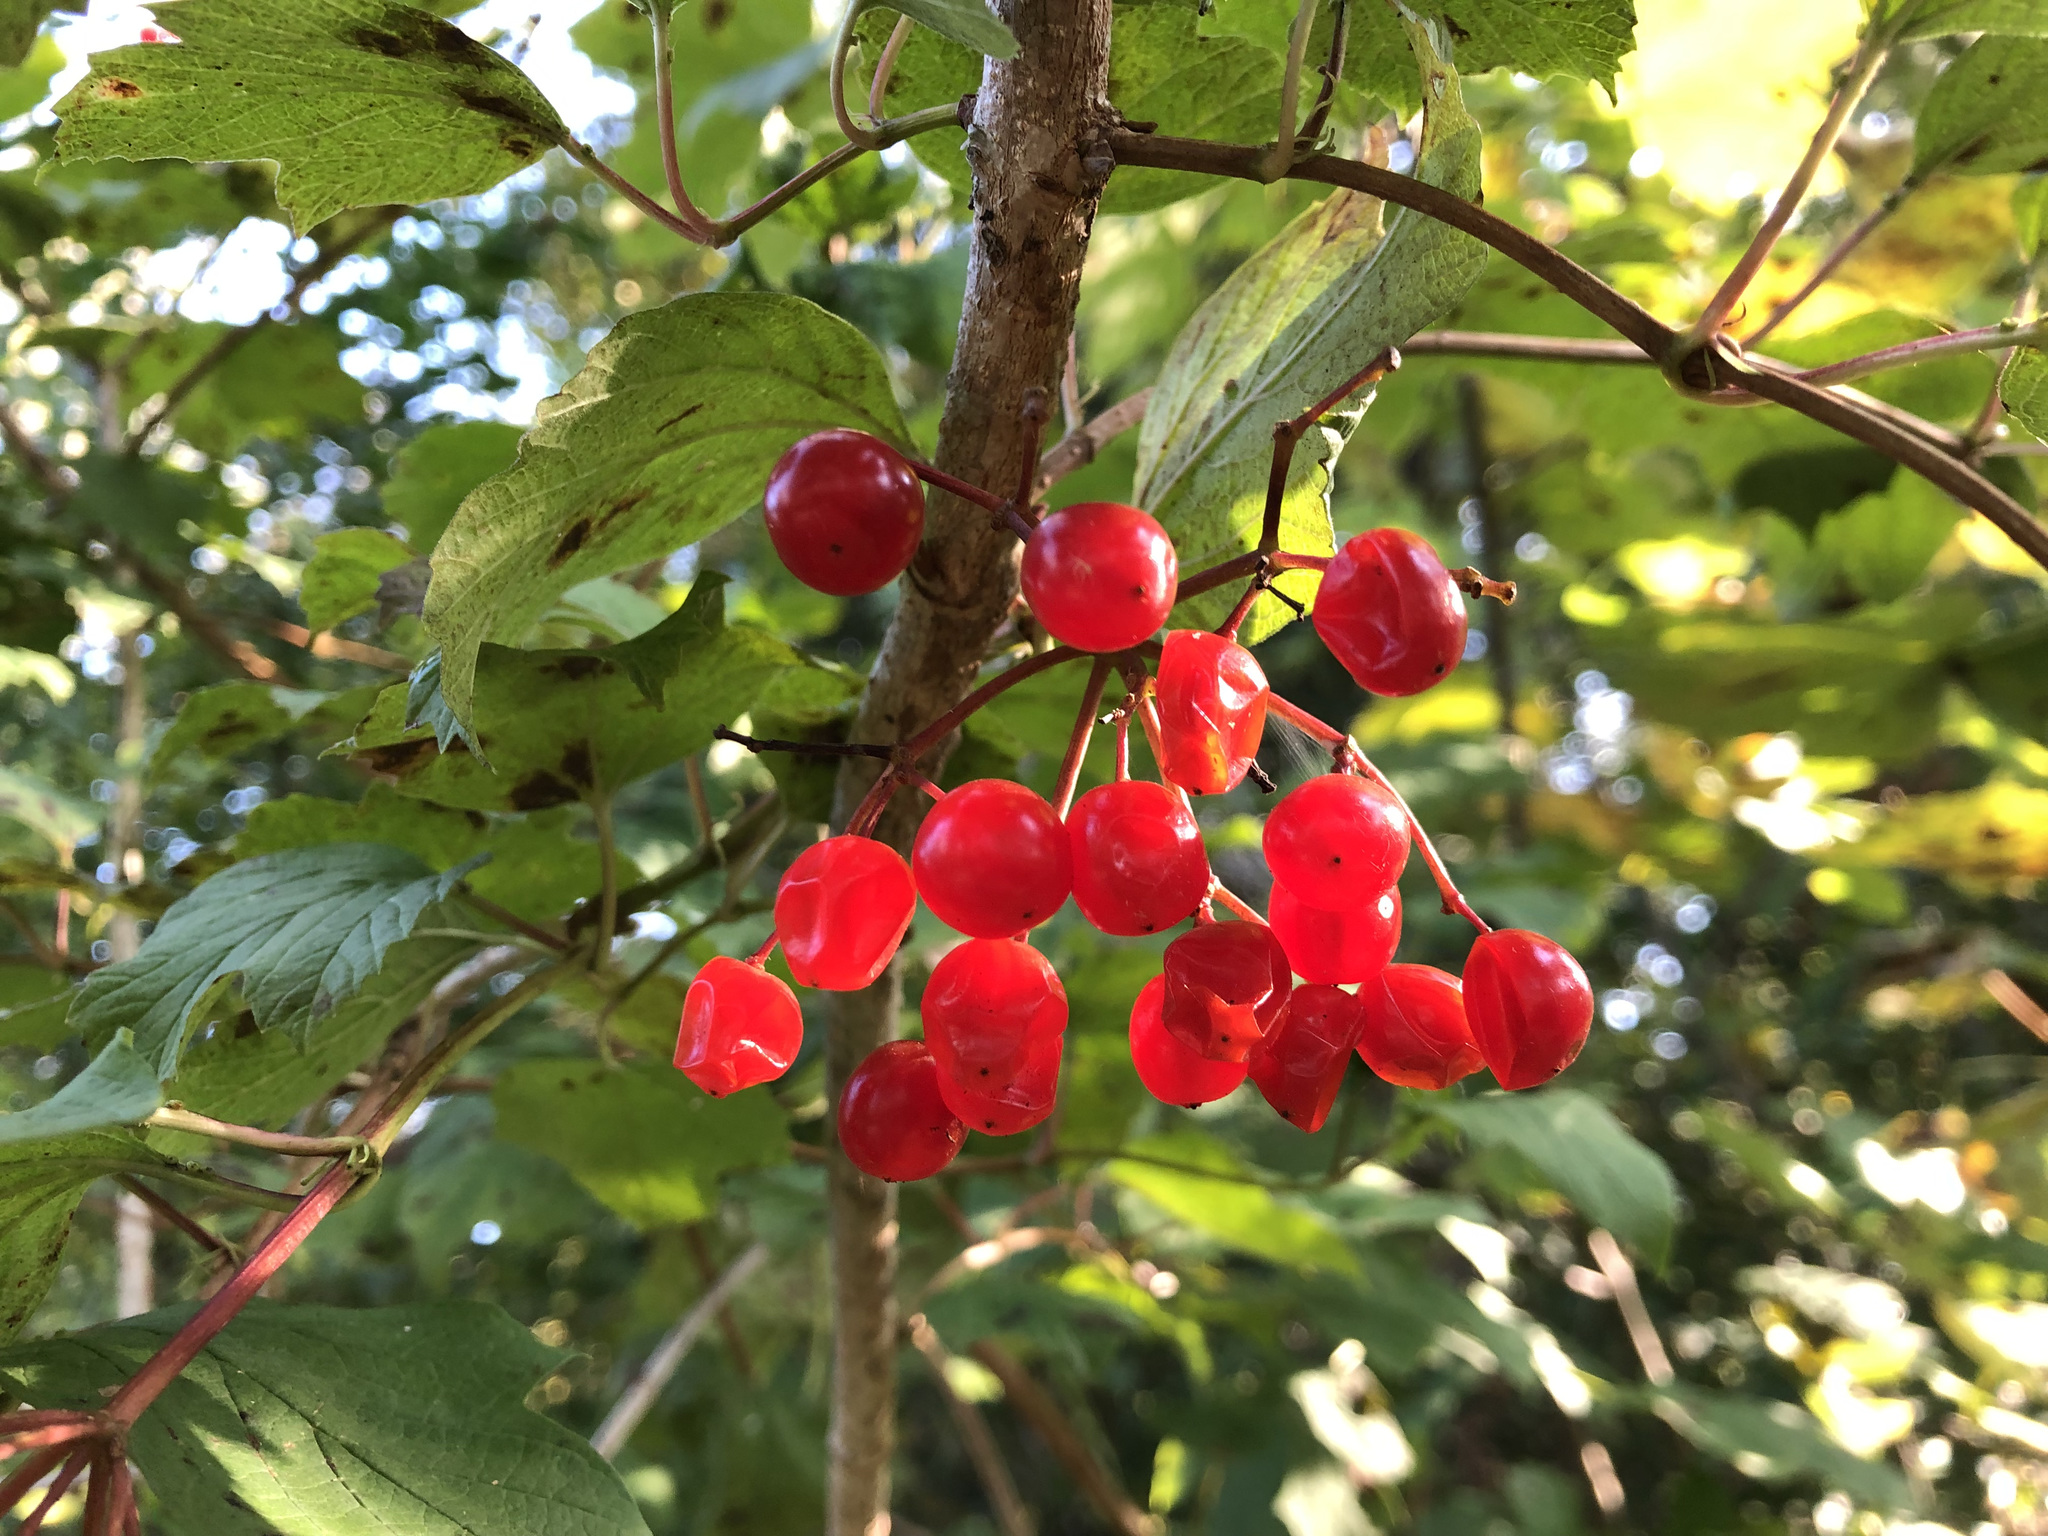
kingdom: Plantae
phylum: Tracheophyta
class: Magnoliopsida
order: Dipsacales
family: Viburnaceae
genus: Viburnum
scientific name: Viburnum opulus
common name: Guelder-rose
